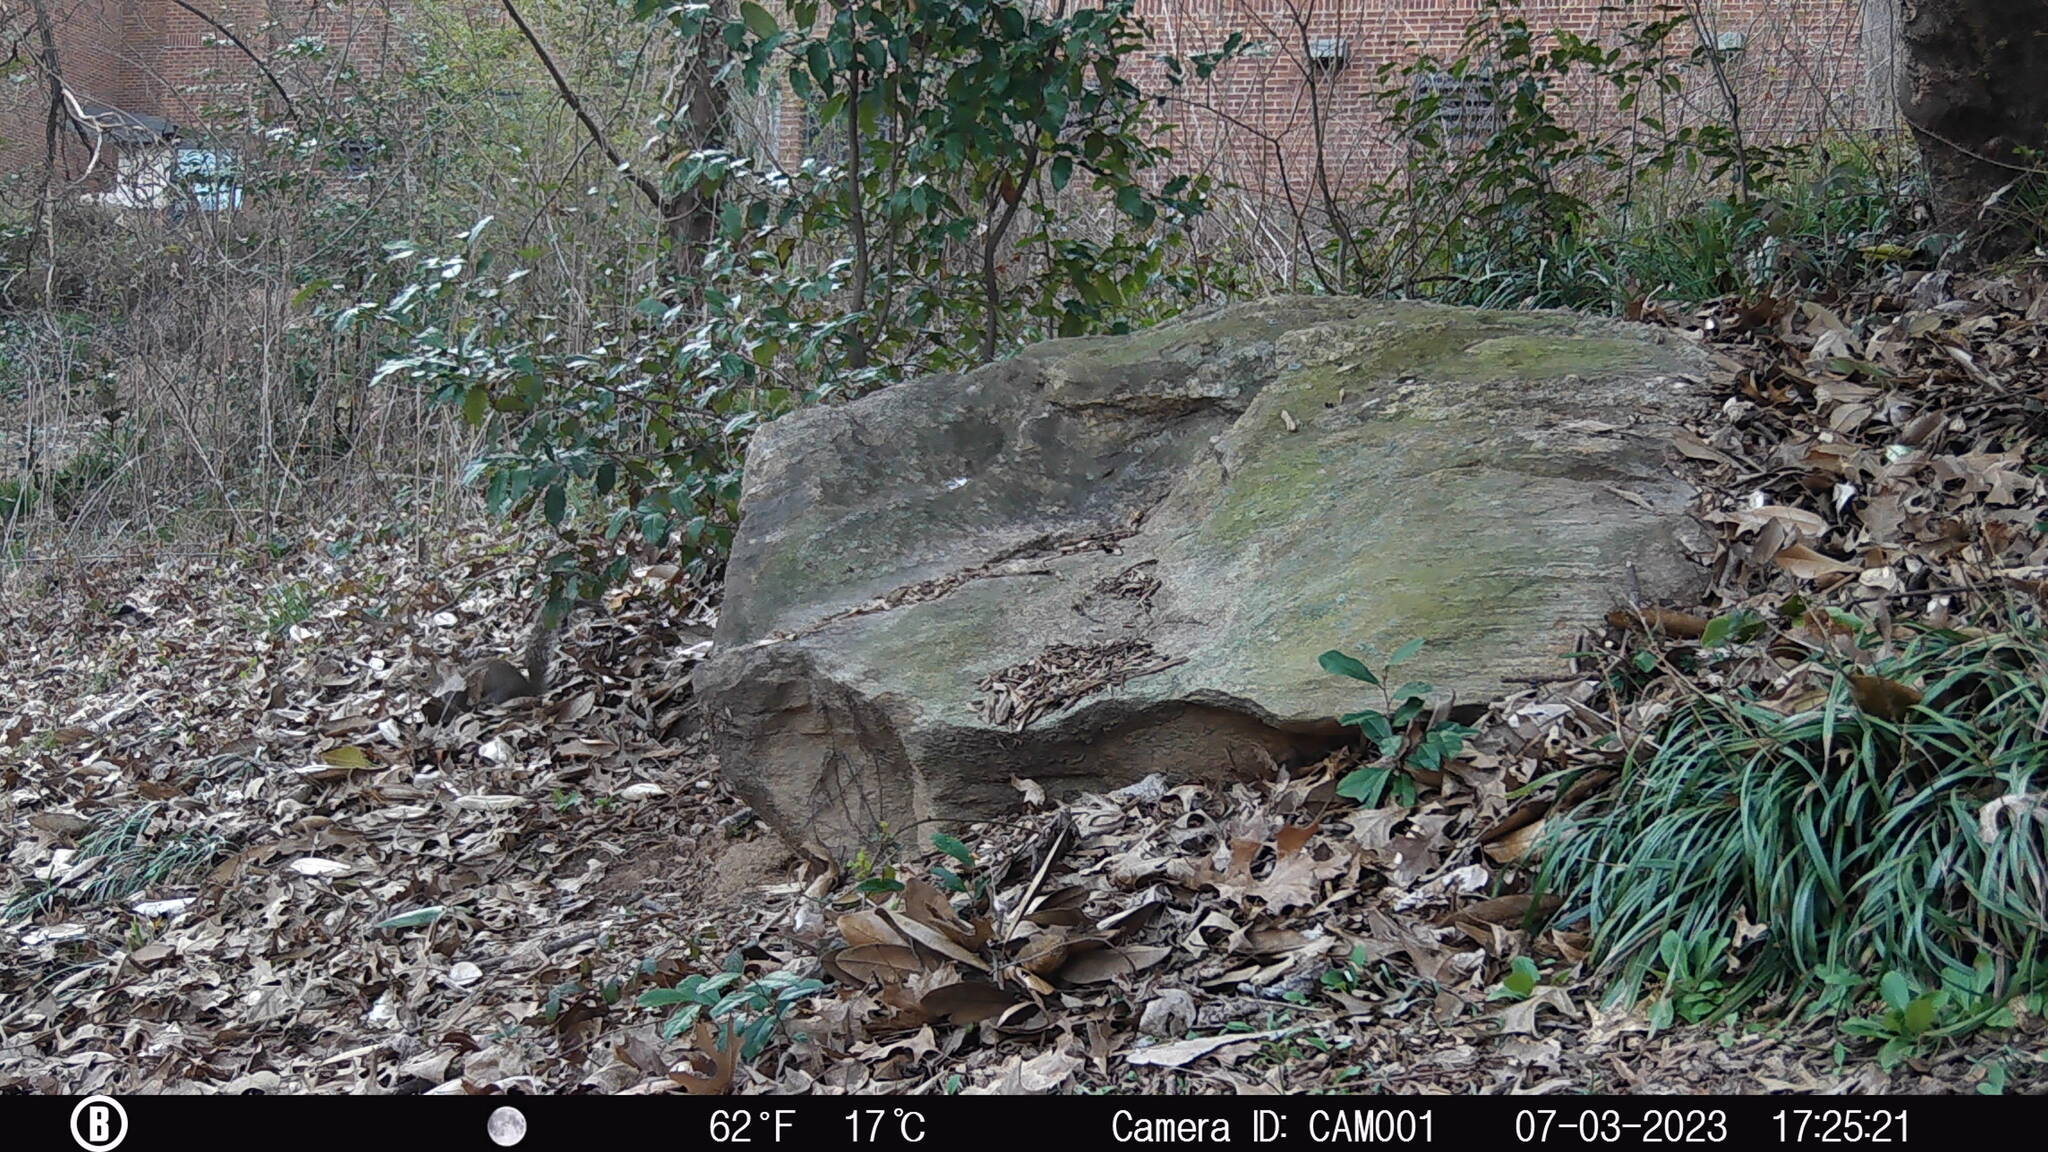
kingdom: Animalia
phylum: Chordata
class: Mammalia
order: Rodentia
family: Sciuridae
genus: Sciurus
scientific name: Sciurus carolinensis
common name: Eastern gray squirrel
